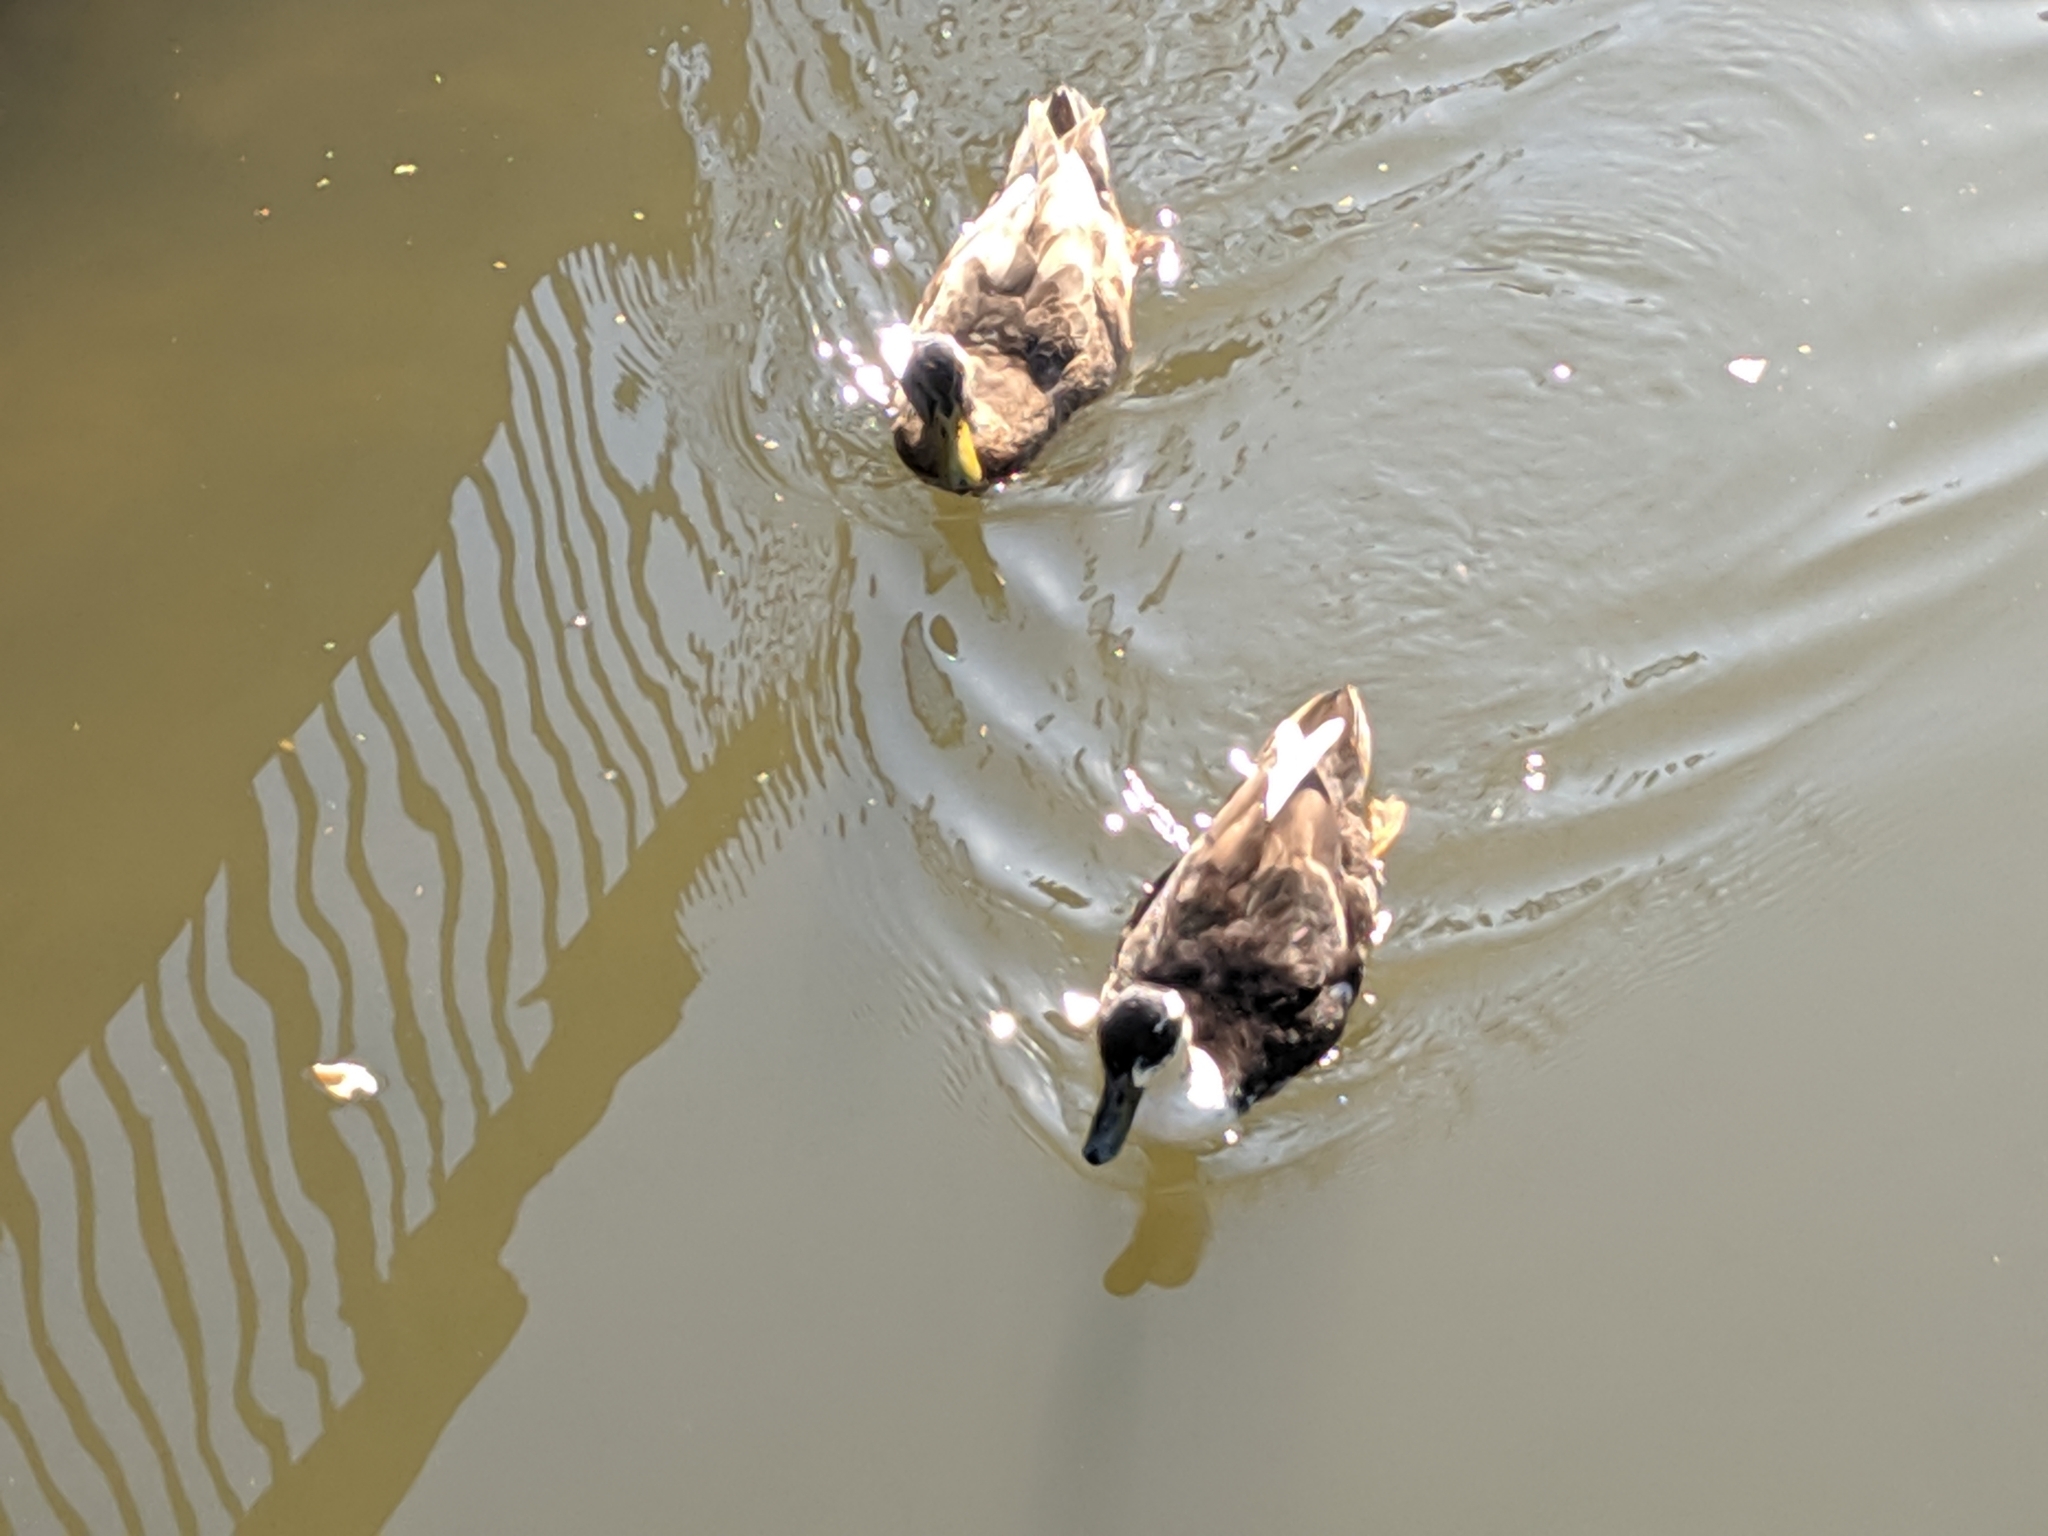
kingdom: Animalia
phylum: Chordata
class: Aves
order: Anseriformes
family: Anatidae
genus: Anas
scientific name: Anas platyrhynchos
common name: Mallard
